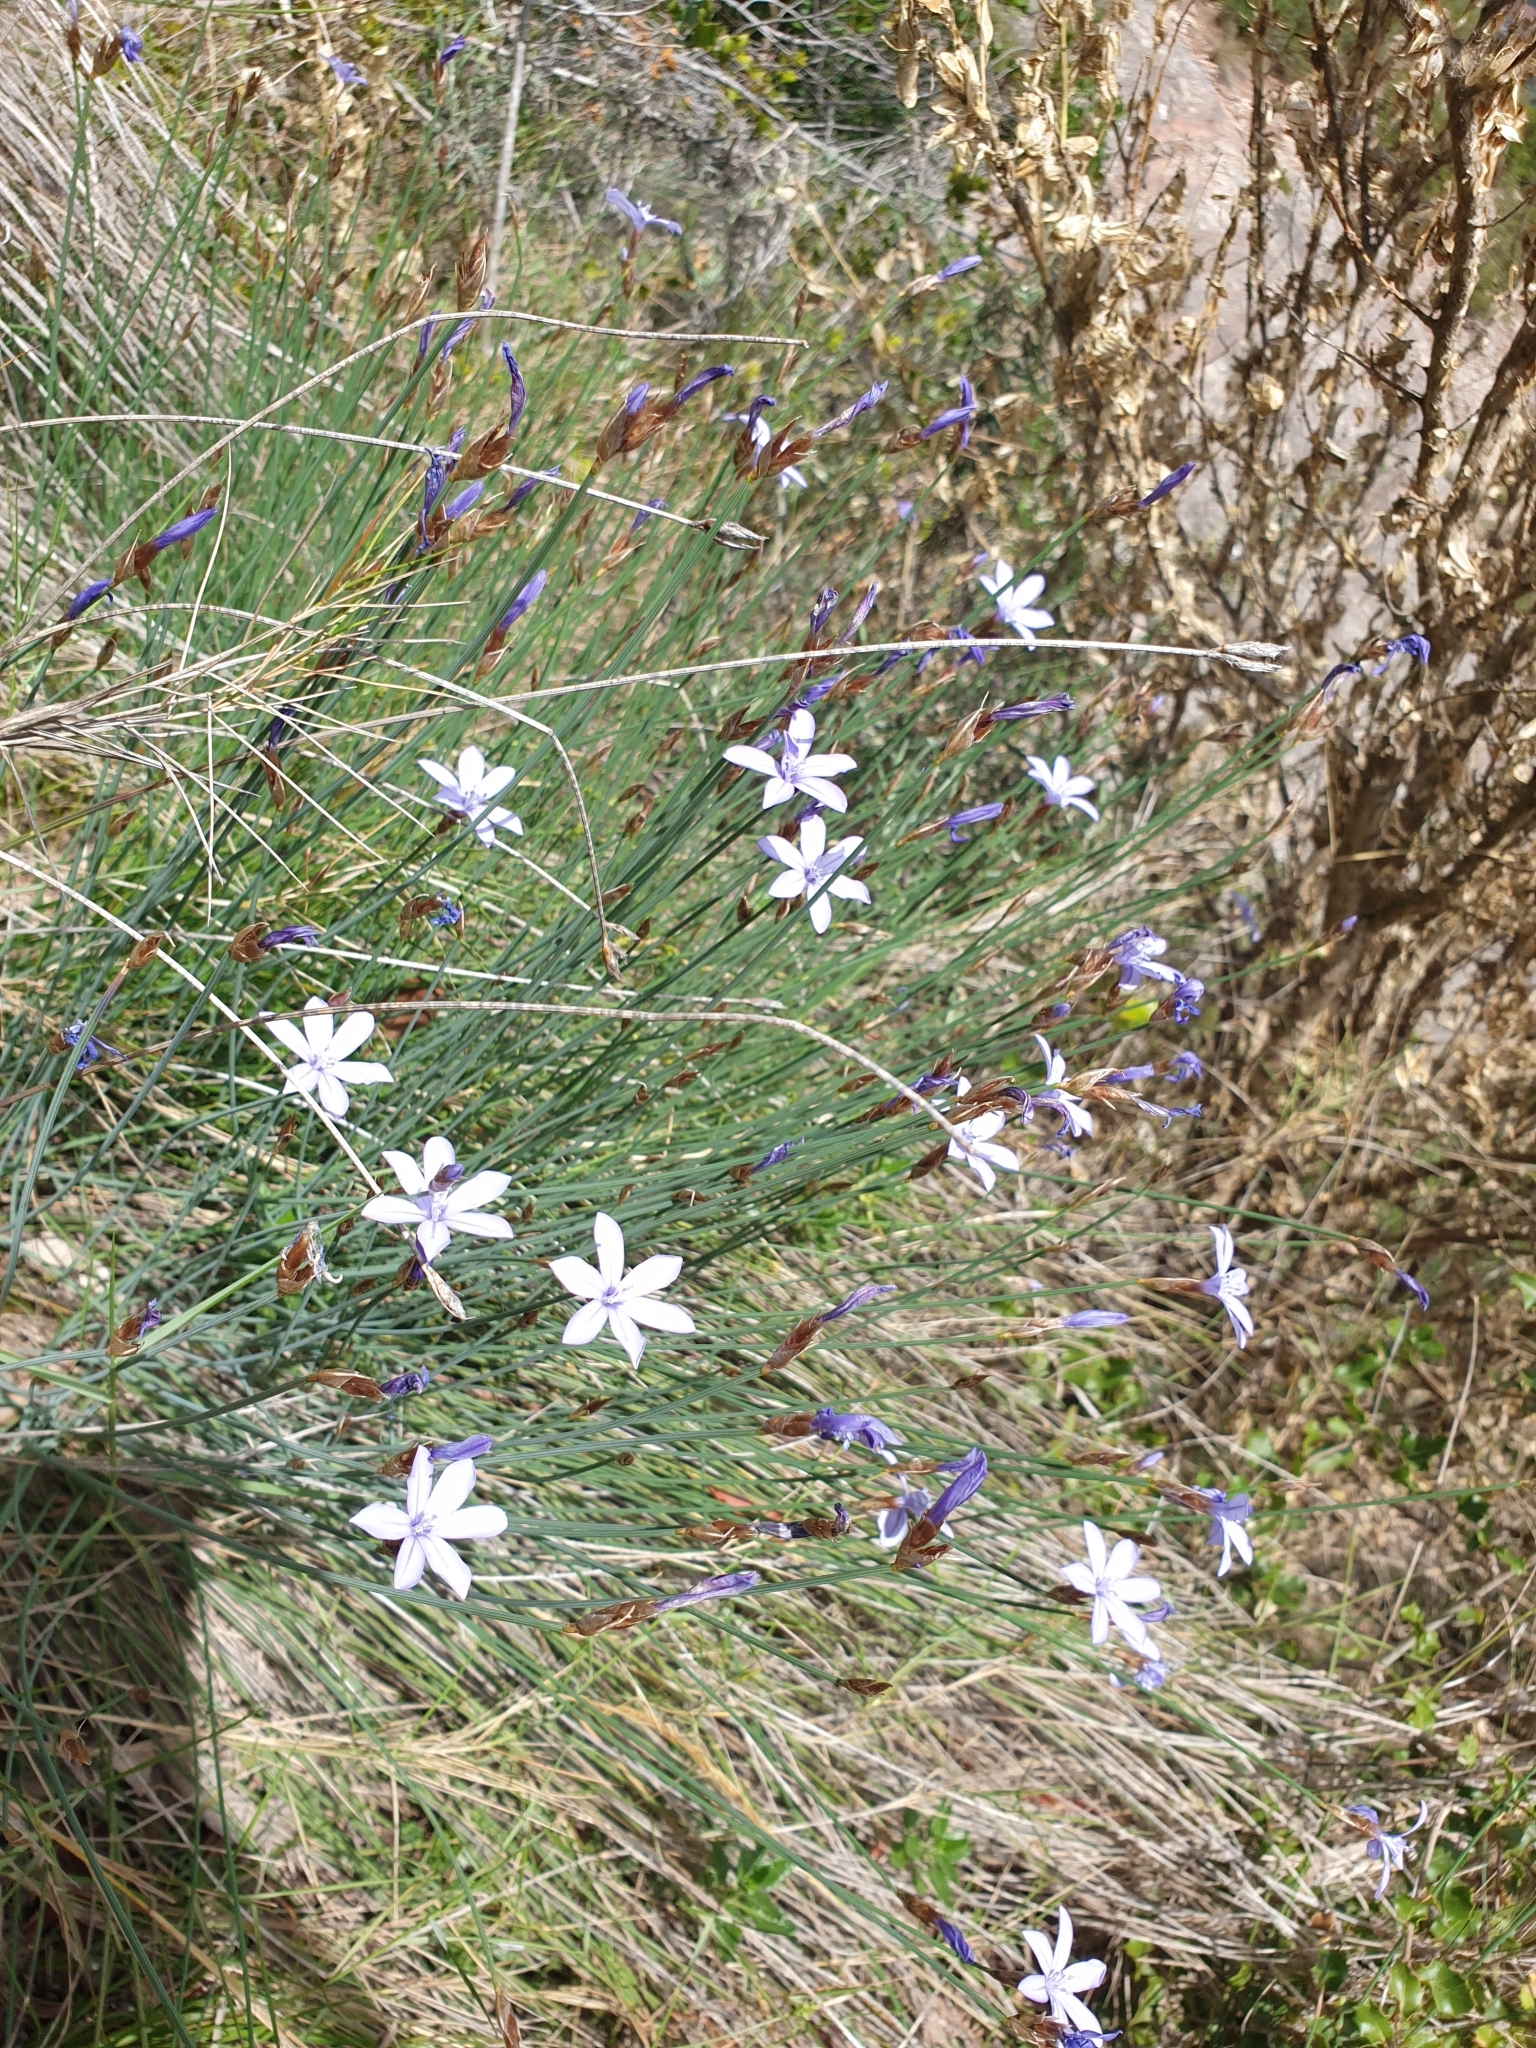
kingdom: Plantae
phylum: Tracheophyta
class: Liliopsida
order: Asparagales
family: Asparagaceae
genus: Aphyllanthes
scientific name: Aphyllanthes monspeliensis
